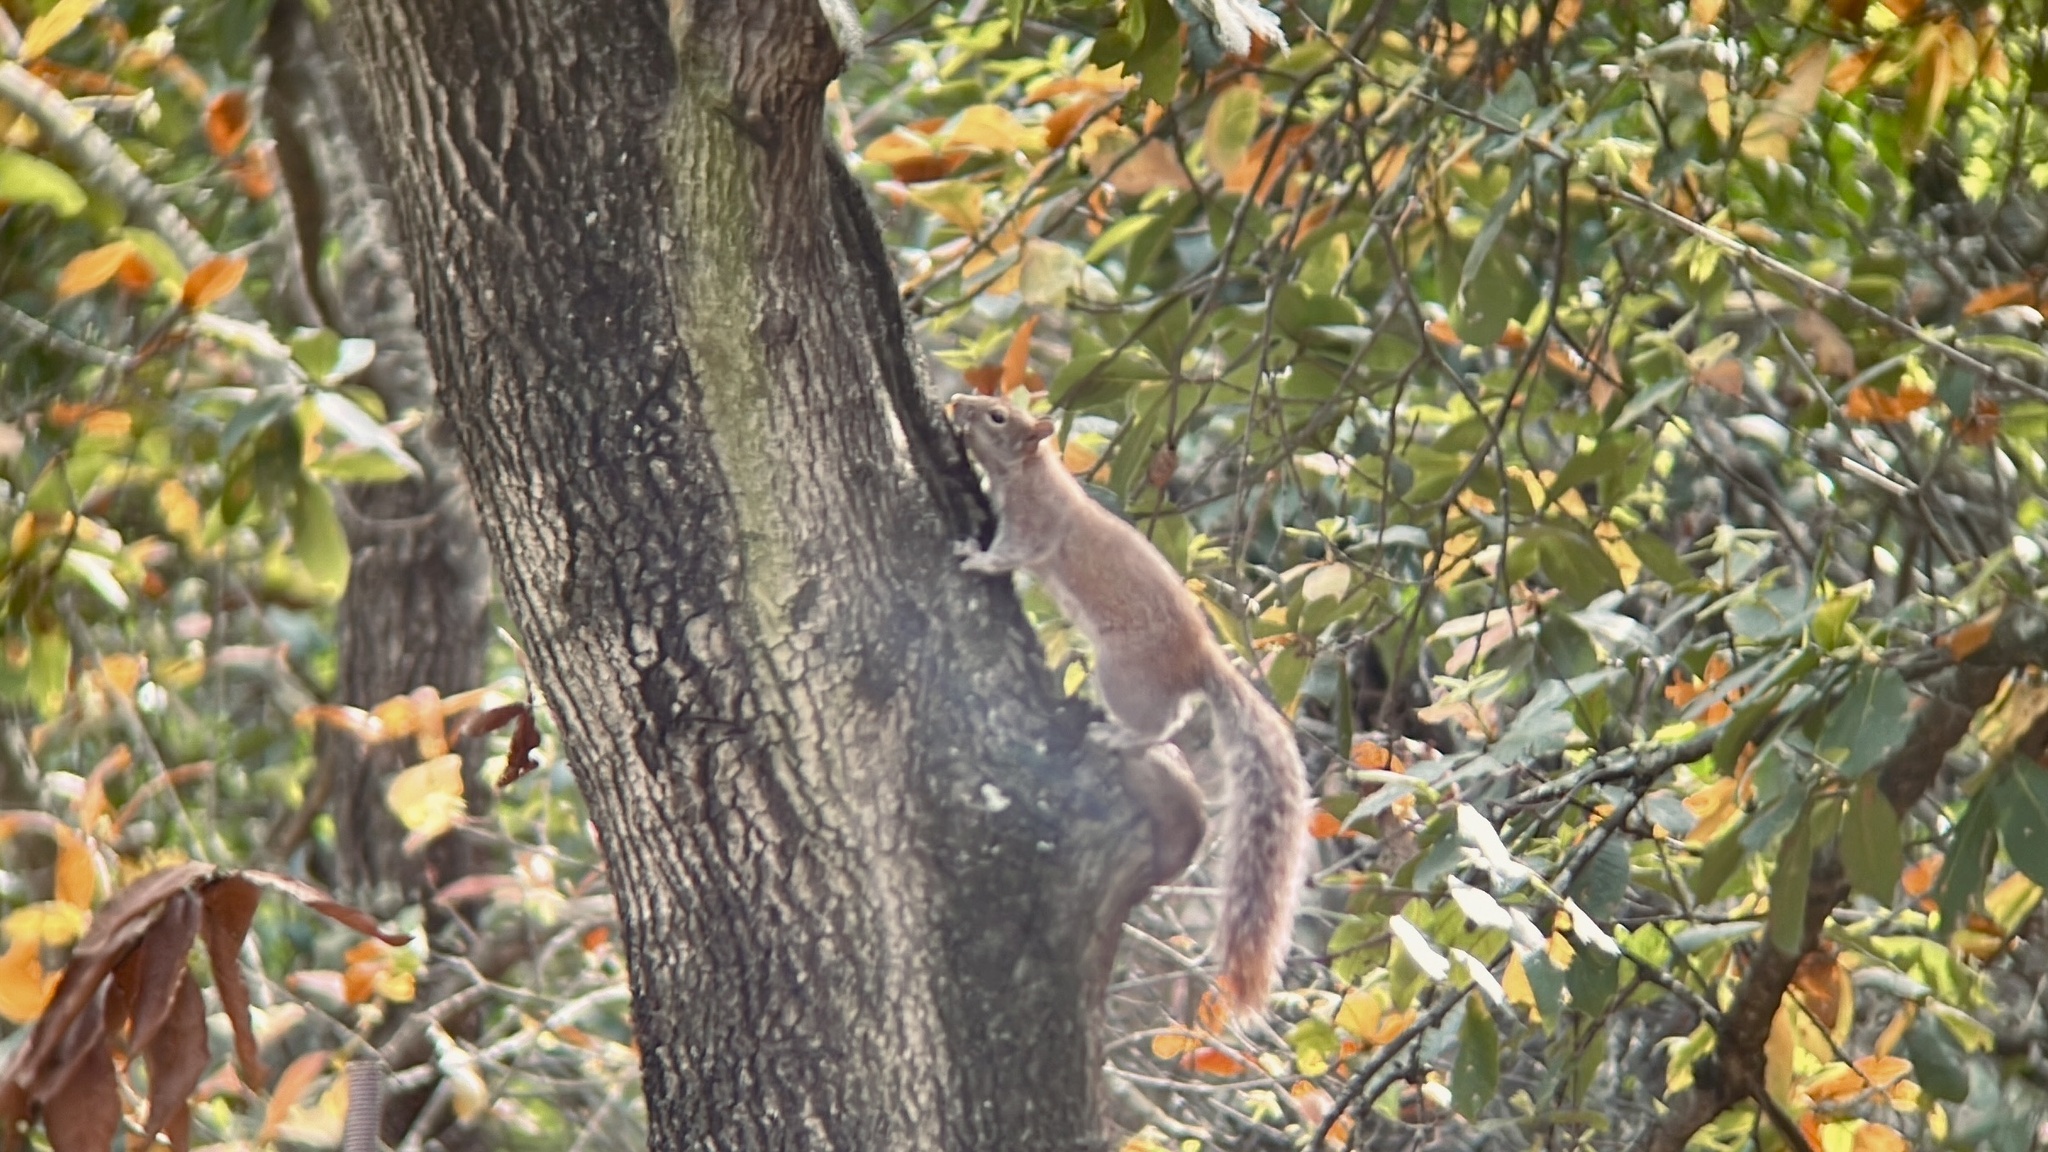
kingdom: Animalia
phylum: Chordata
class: Mammalia
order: Rodentia
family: Sciuridae
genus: Sciurus
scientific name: Sciurus alleni
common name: Allen's squirrel
